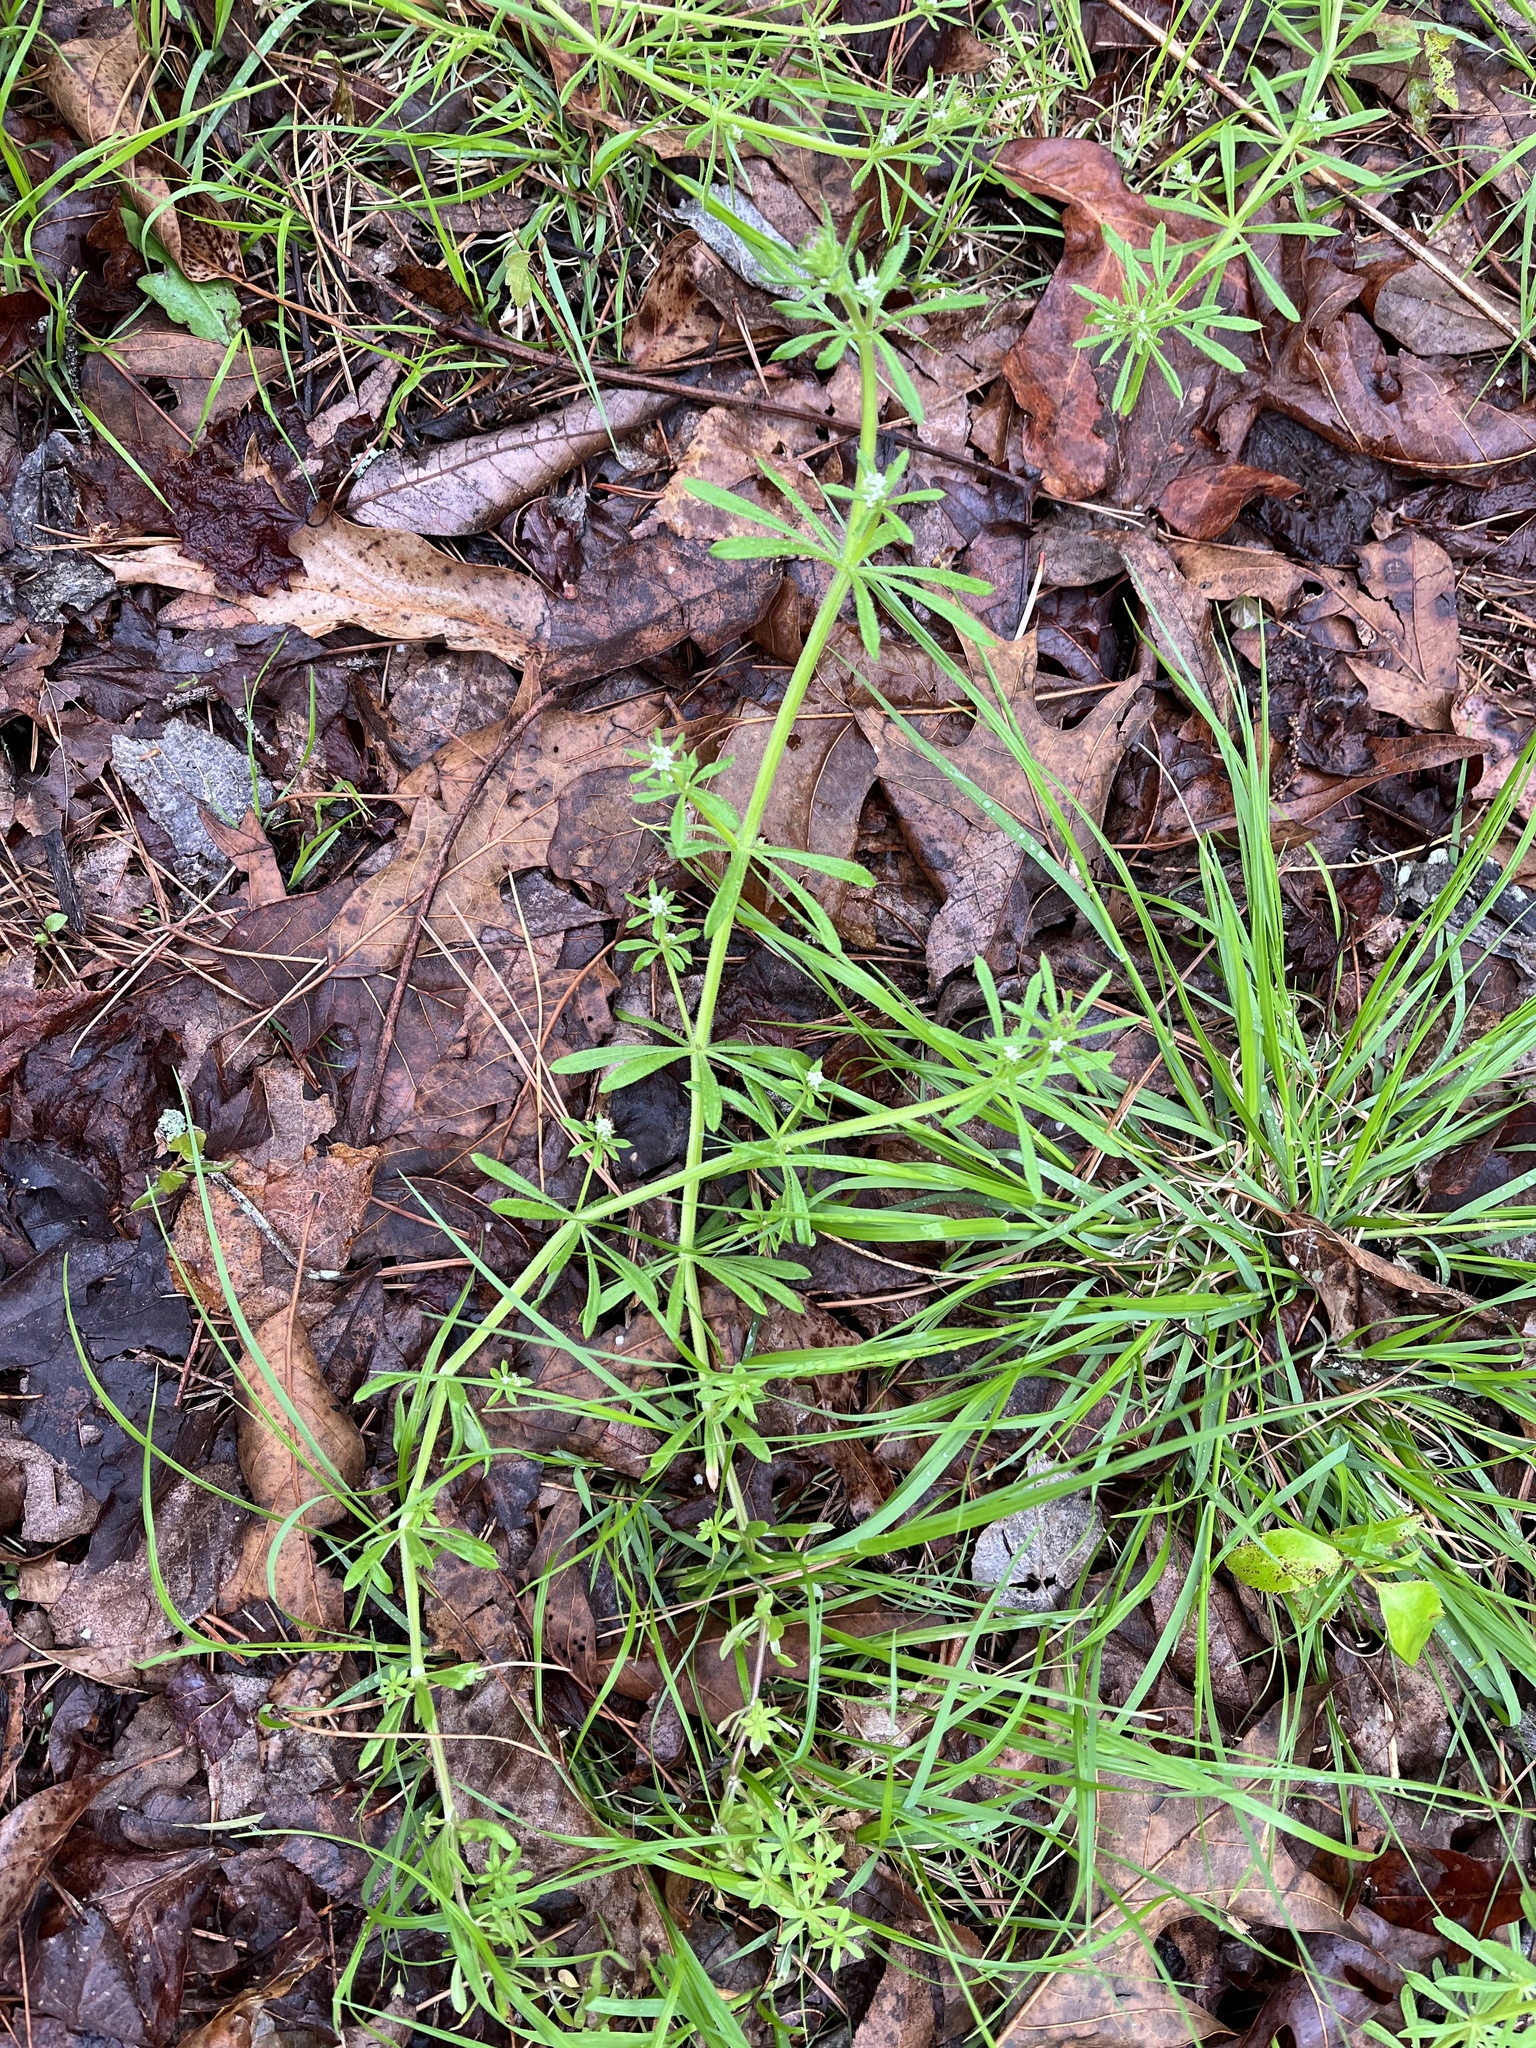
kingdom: Plantae
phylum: Tracheophyta
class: Magnoliopsida
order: Gentianales
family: Rubiaceae
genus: Galium
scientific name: Galium aparine
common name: Cleavers
